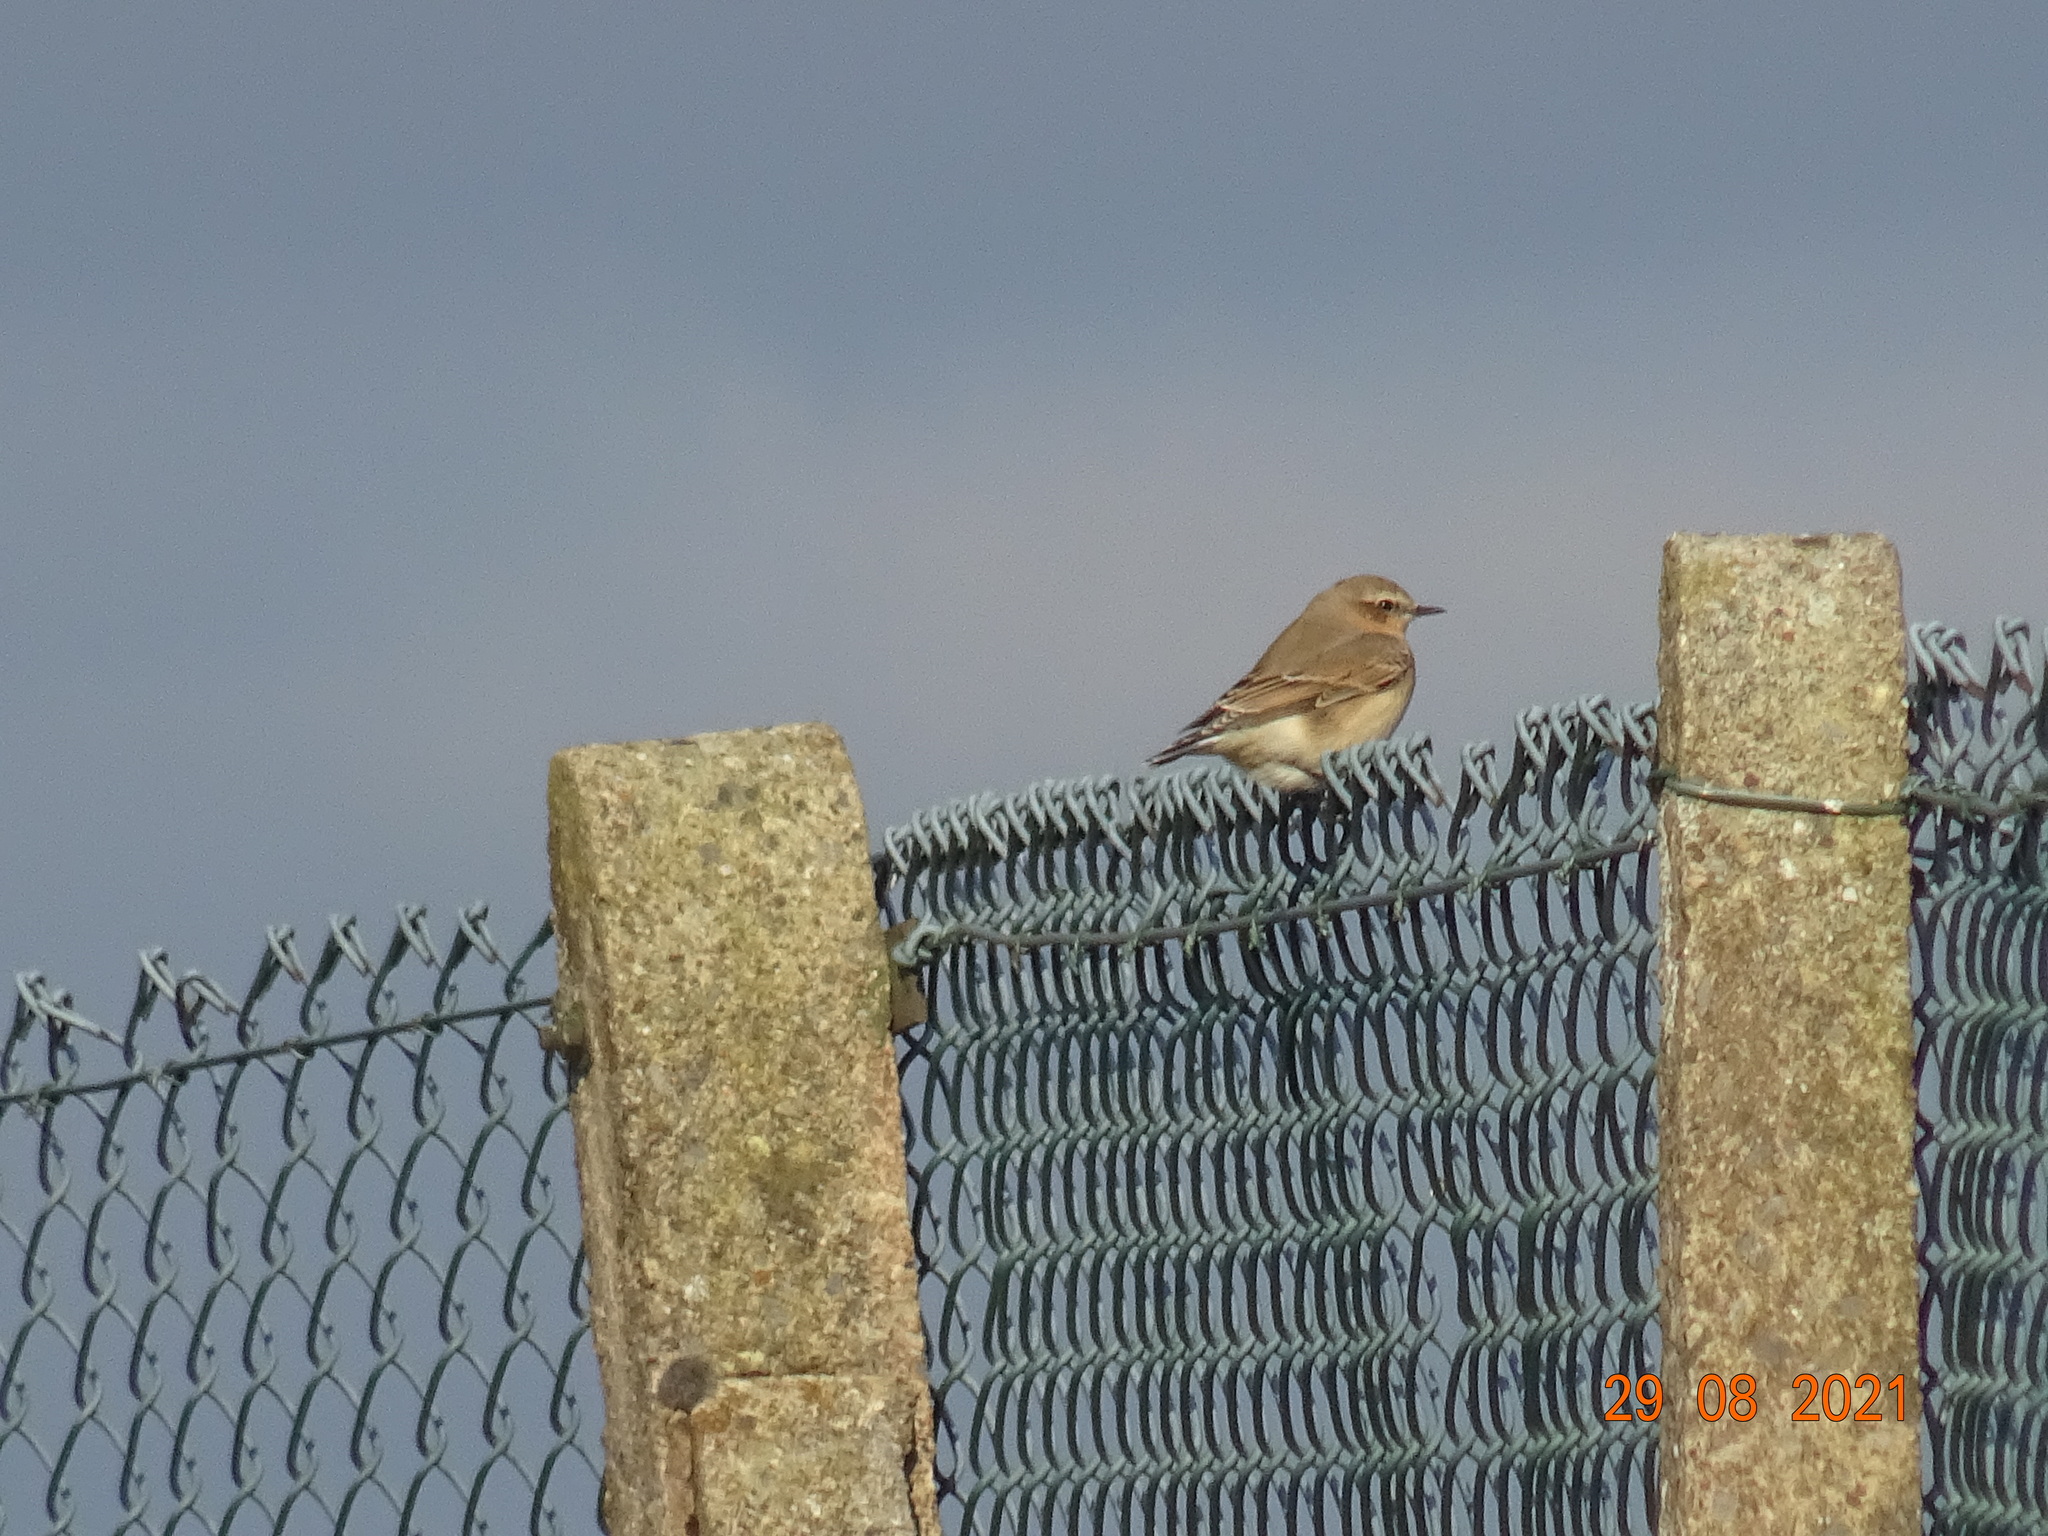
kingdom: Animalia
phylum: Chordata
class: Aves
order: Passeriformes
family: Muscicapidae
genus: Oenanthe
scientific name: Oenanthe oenanthe
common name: Northern wheatear
